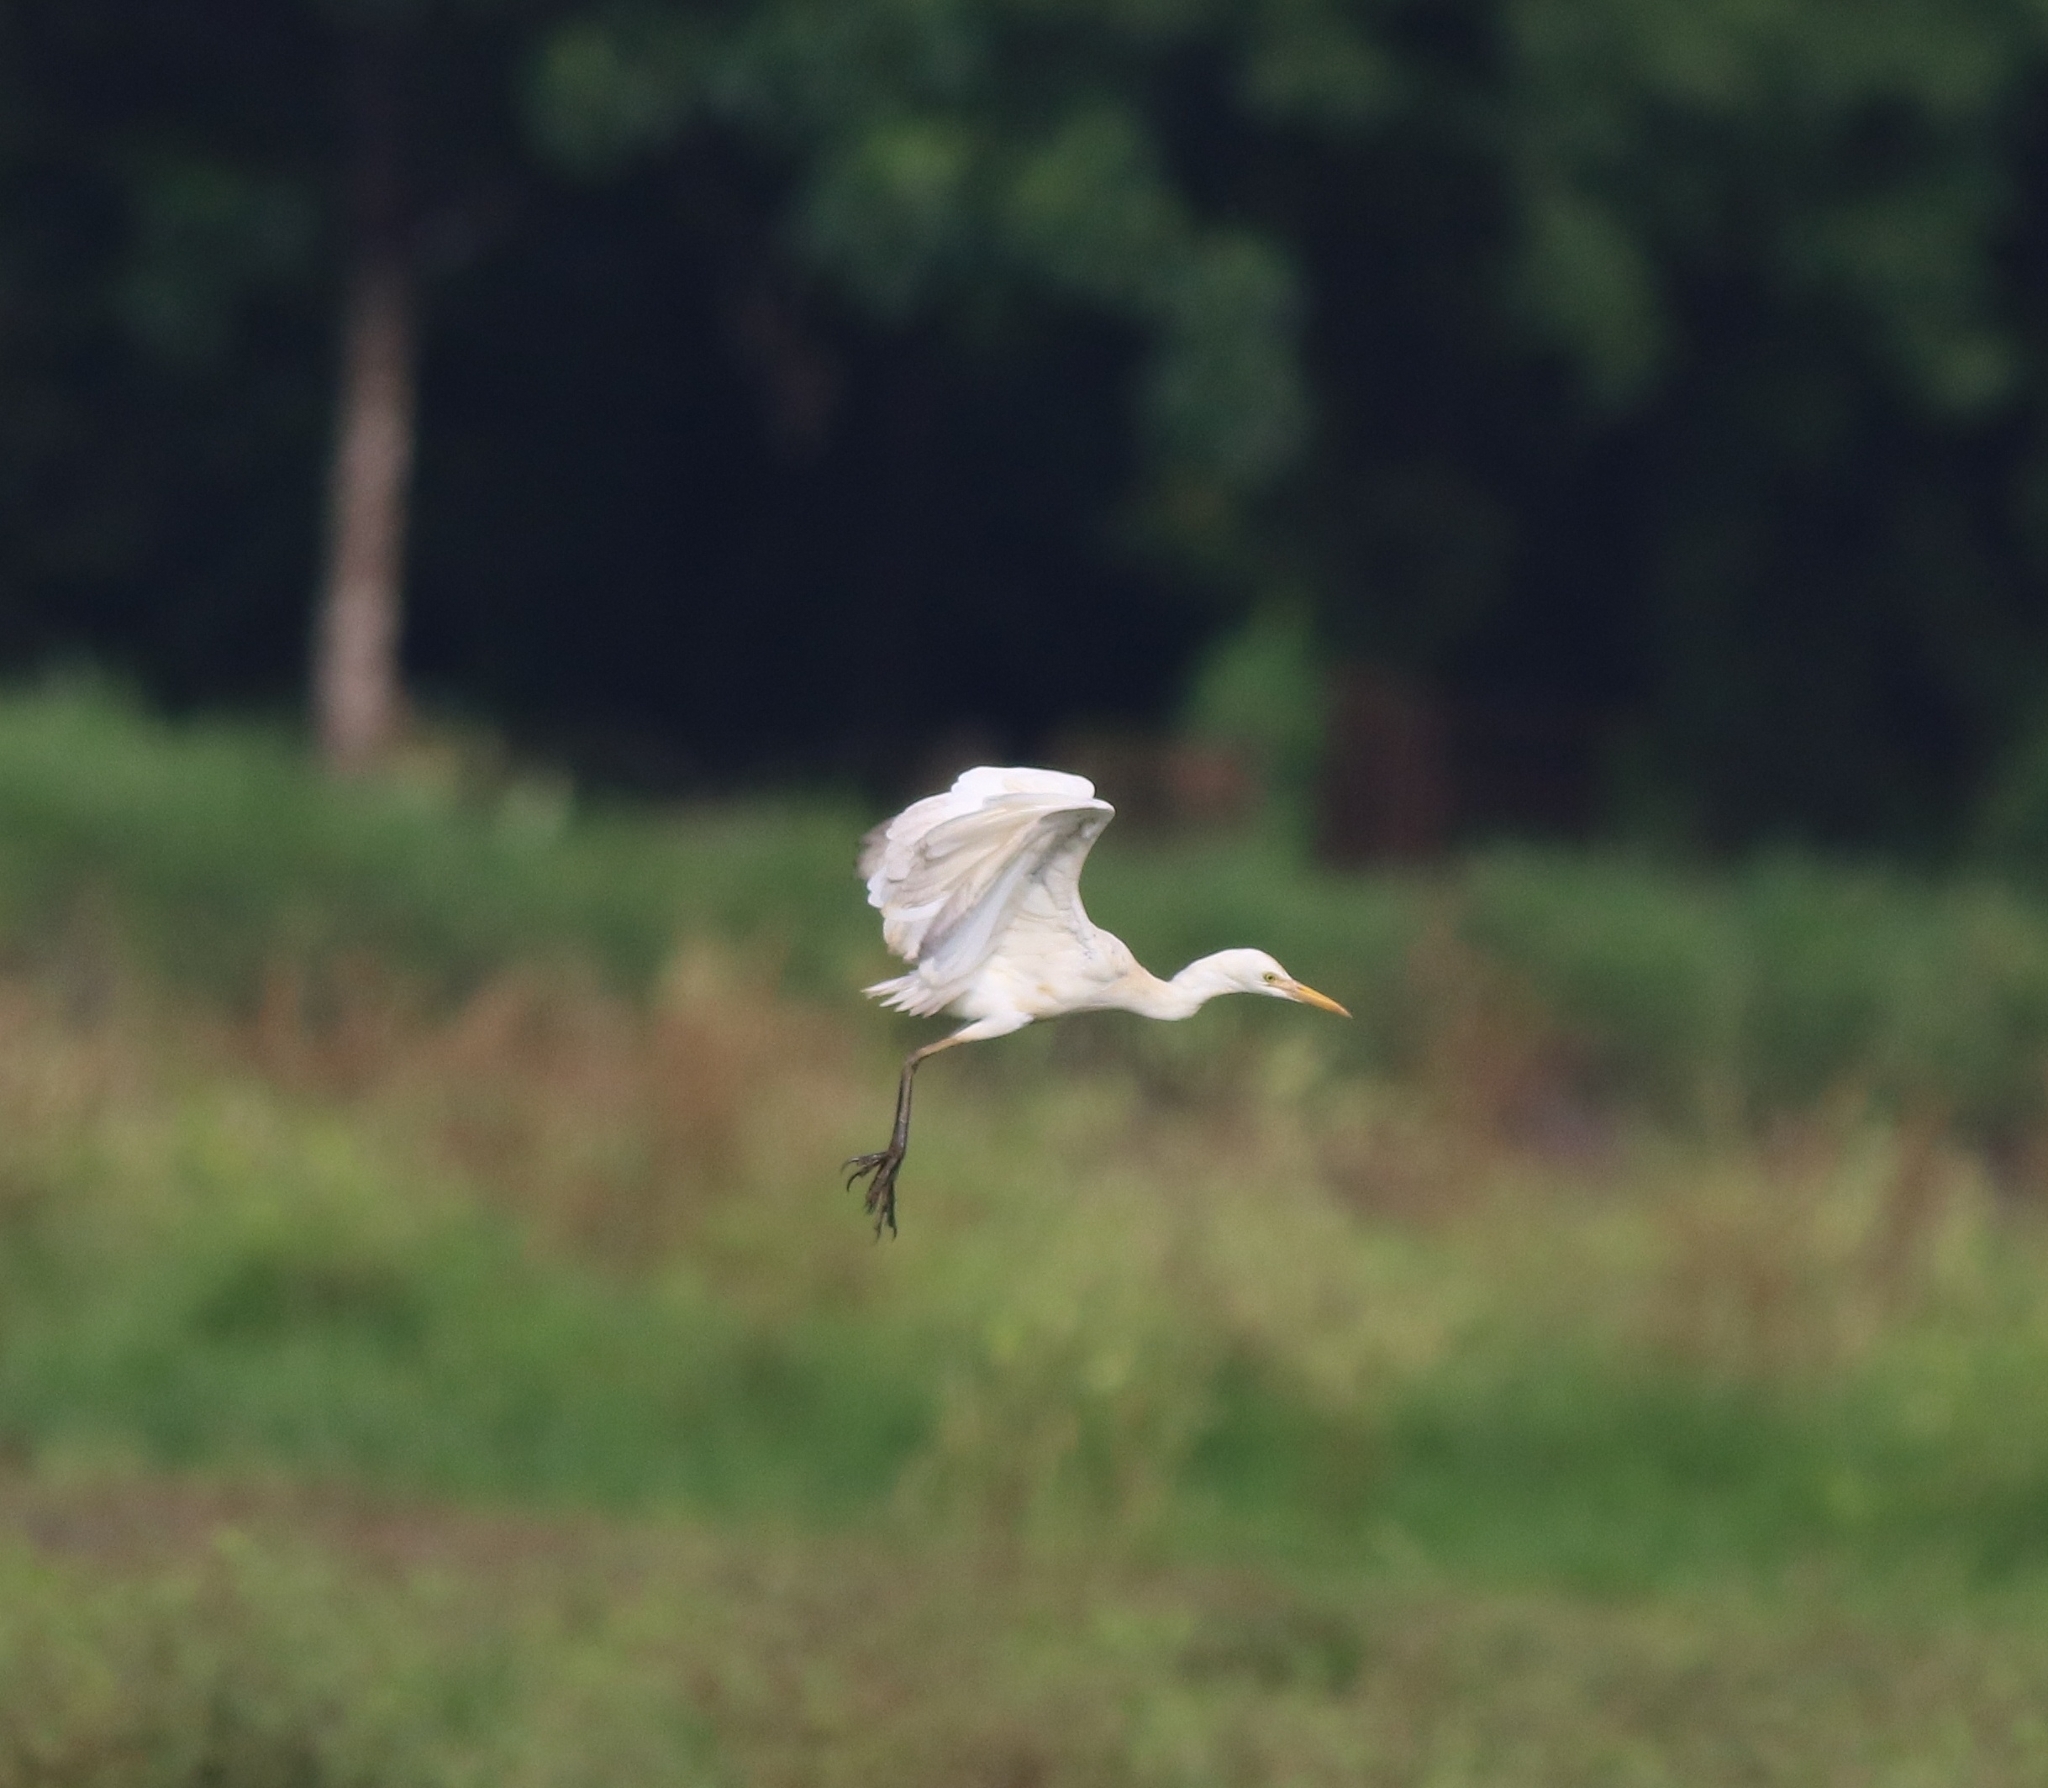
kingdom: Animalia
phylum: Chordata
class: Aves
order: Pelecaniformes
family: Ardeidae
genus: Bubulcus
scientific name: Bubulcus coromandus
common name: Eastern cattle egret
